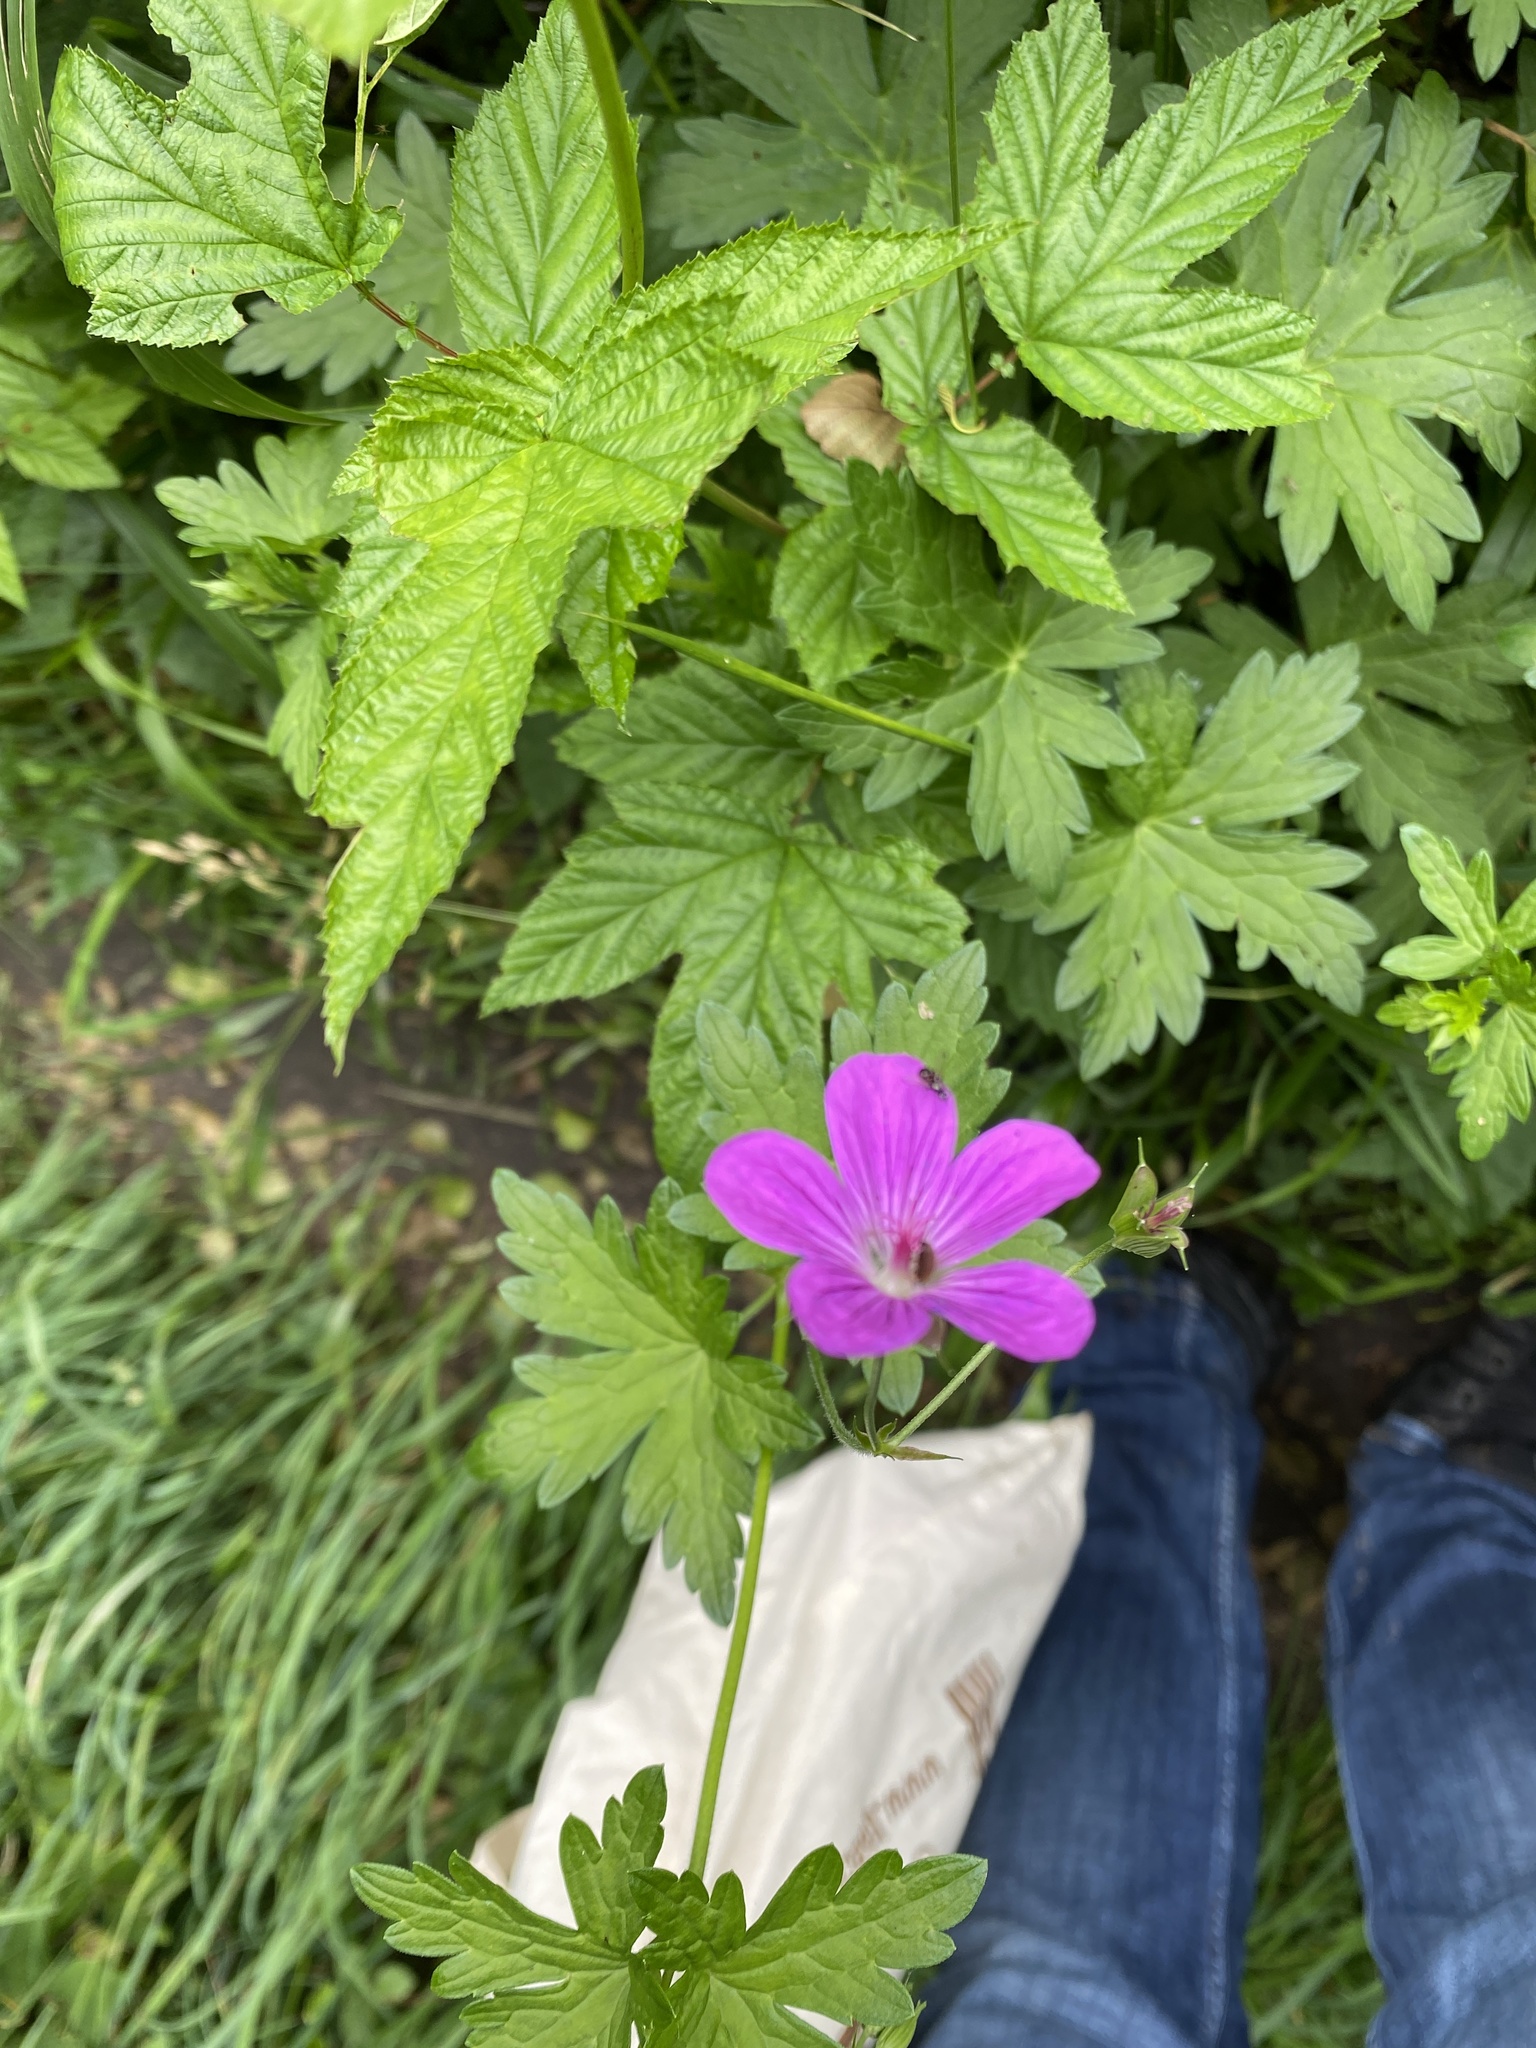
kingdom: Plantae
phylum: Tracheophyta
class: Magnoliopsida
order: Geraniales
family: Geraniaceae
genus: Geranium
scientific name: Geranium palustre
